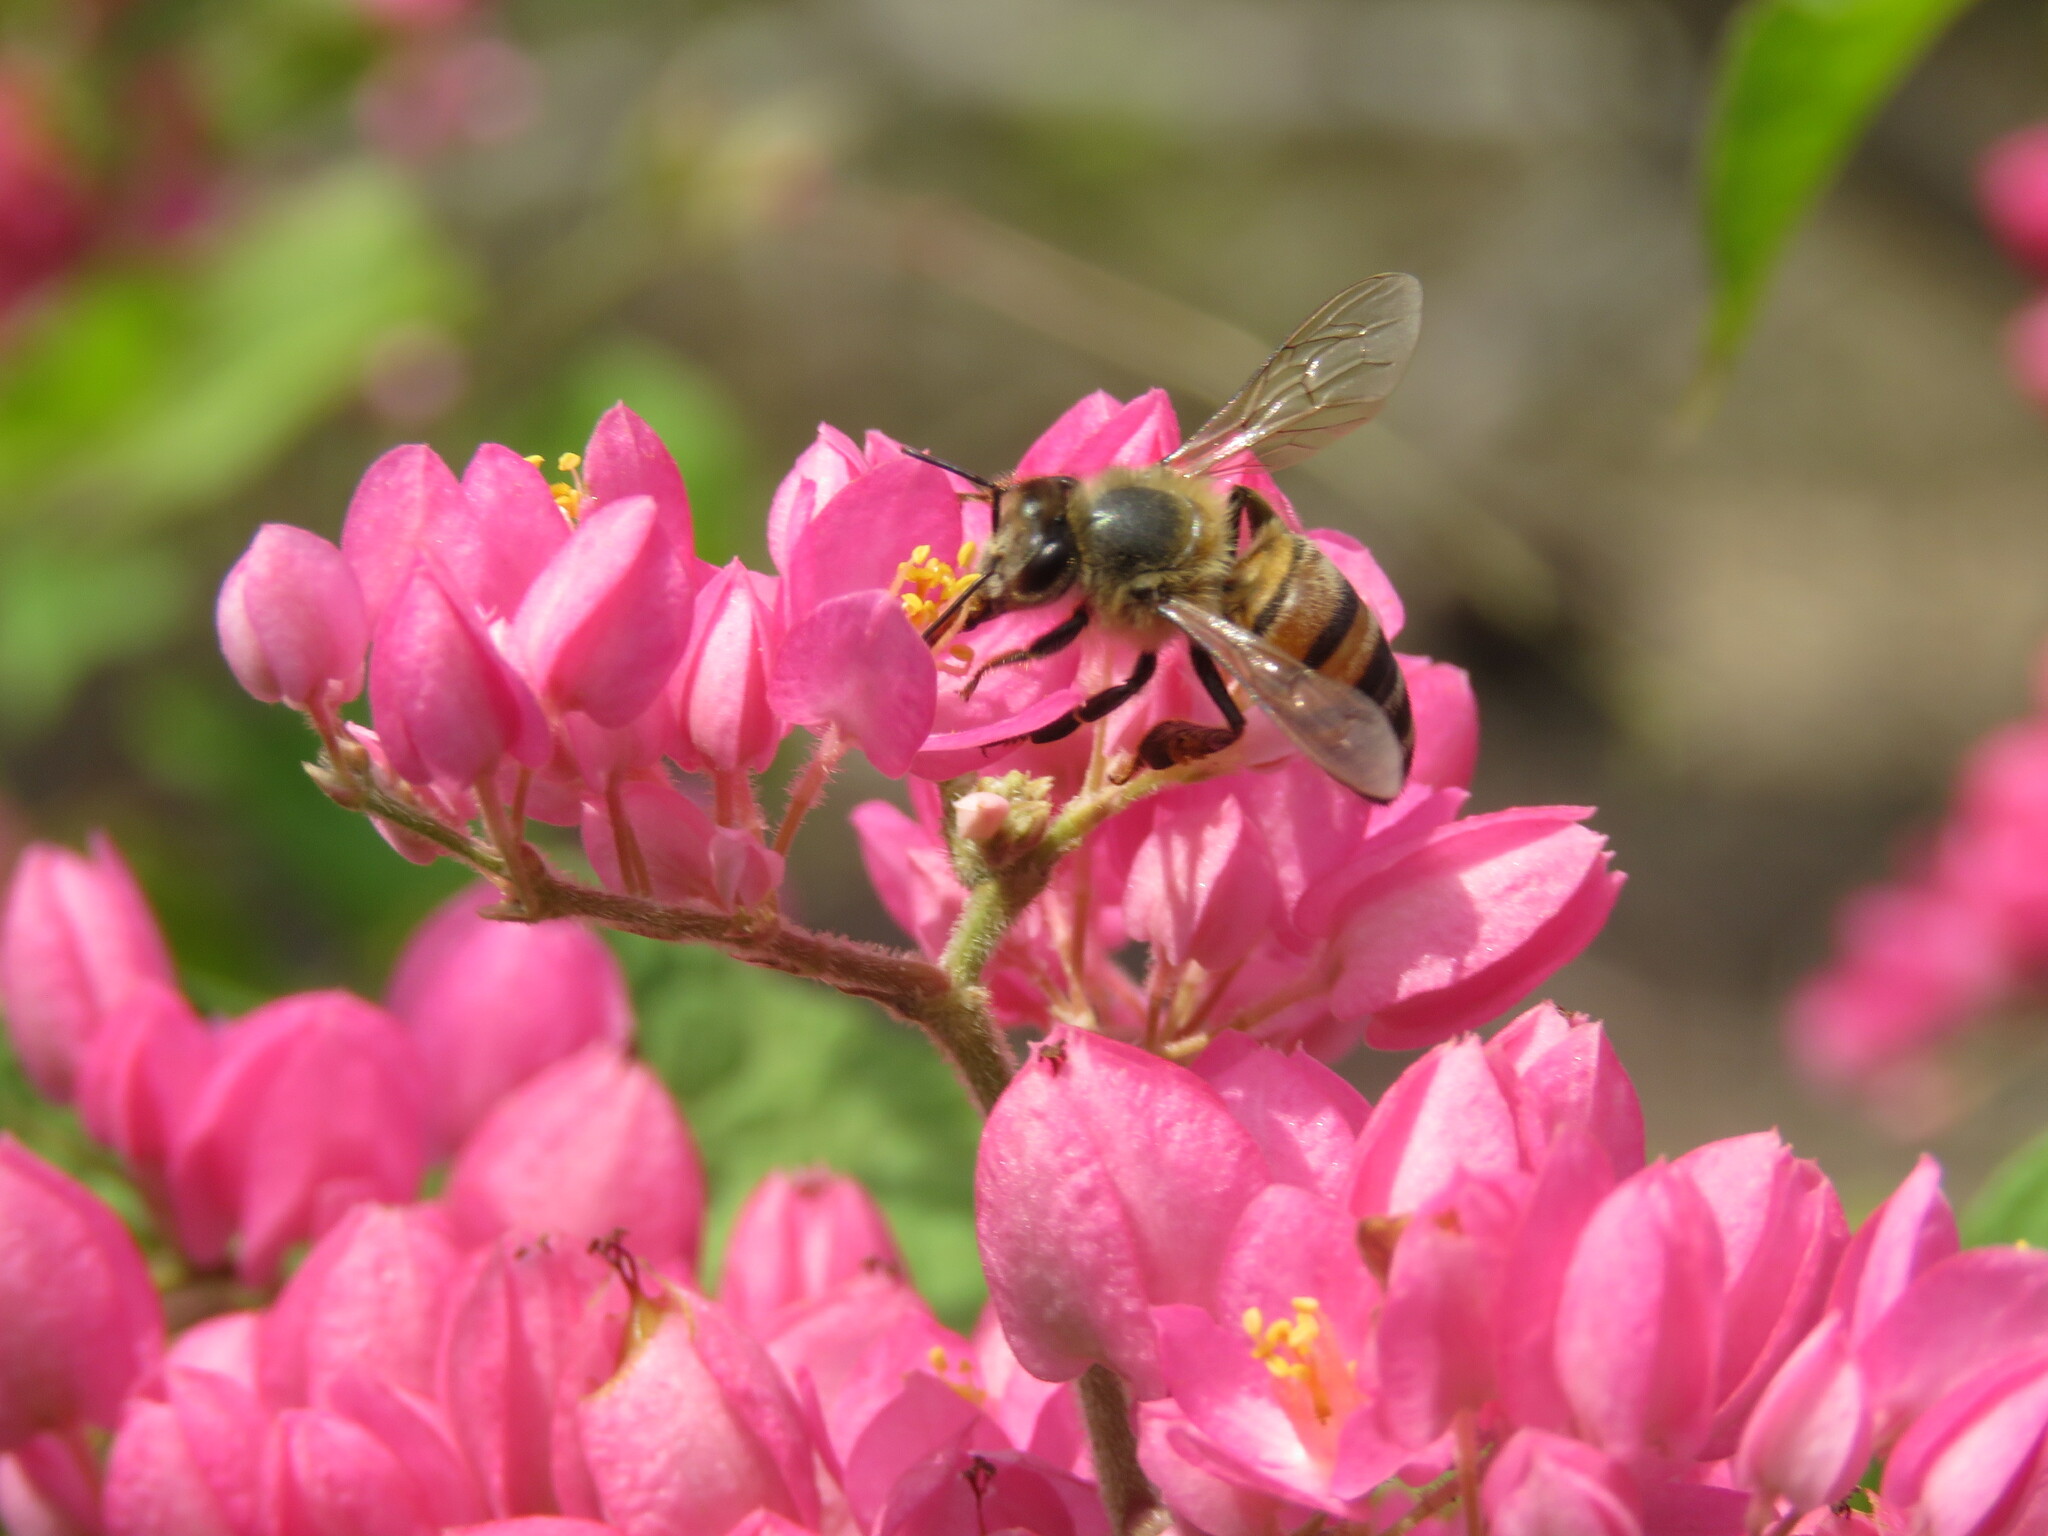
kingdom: Animalia
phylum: Arthropoda
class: Insecta
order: Hymenoptera
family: Apidae
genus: Apis
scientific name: Apis mellifera
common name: Honey bee
